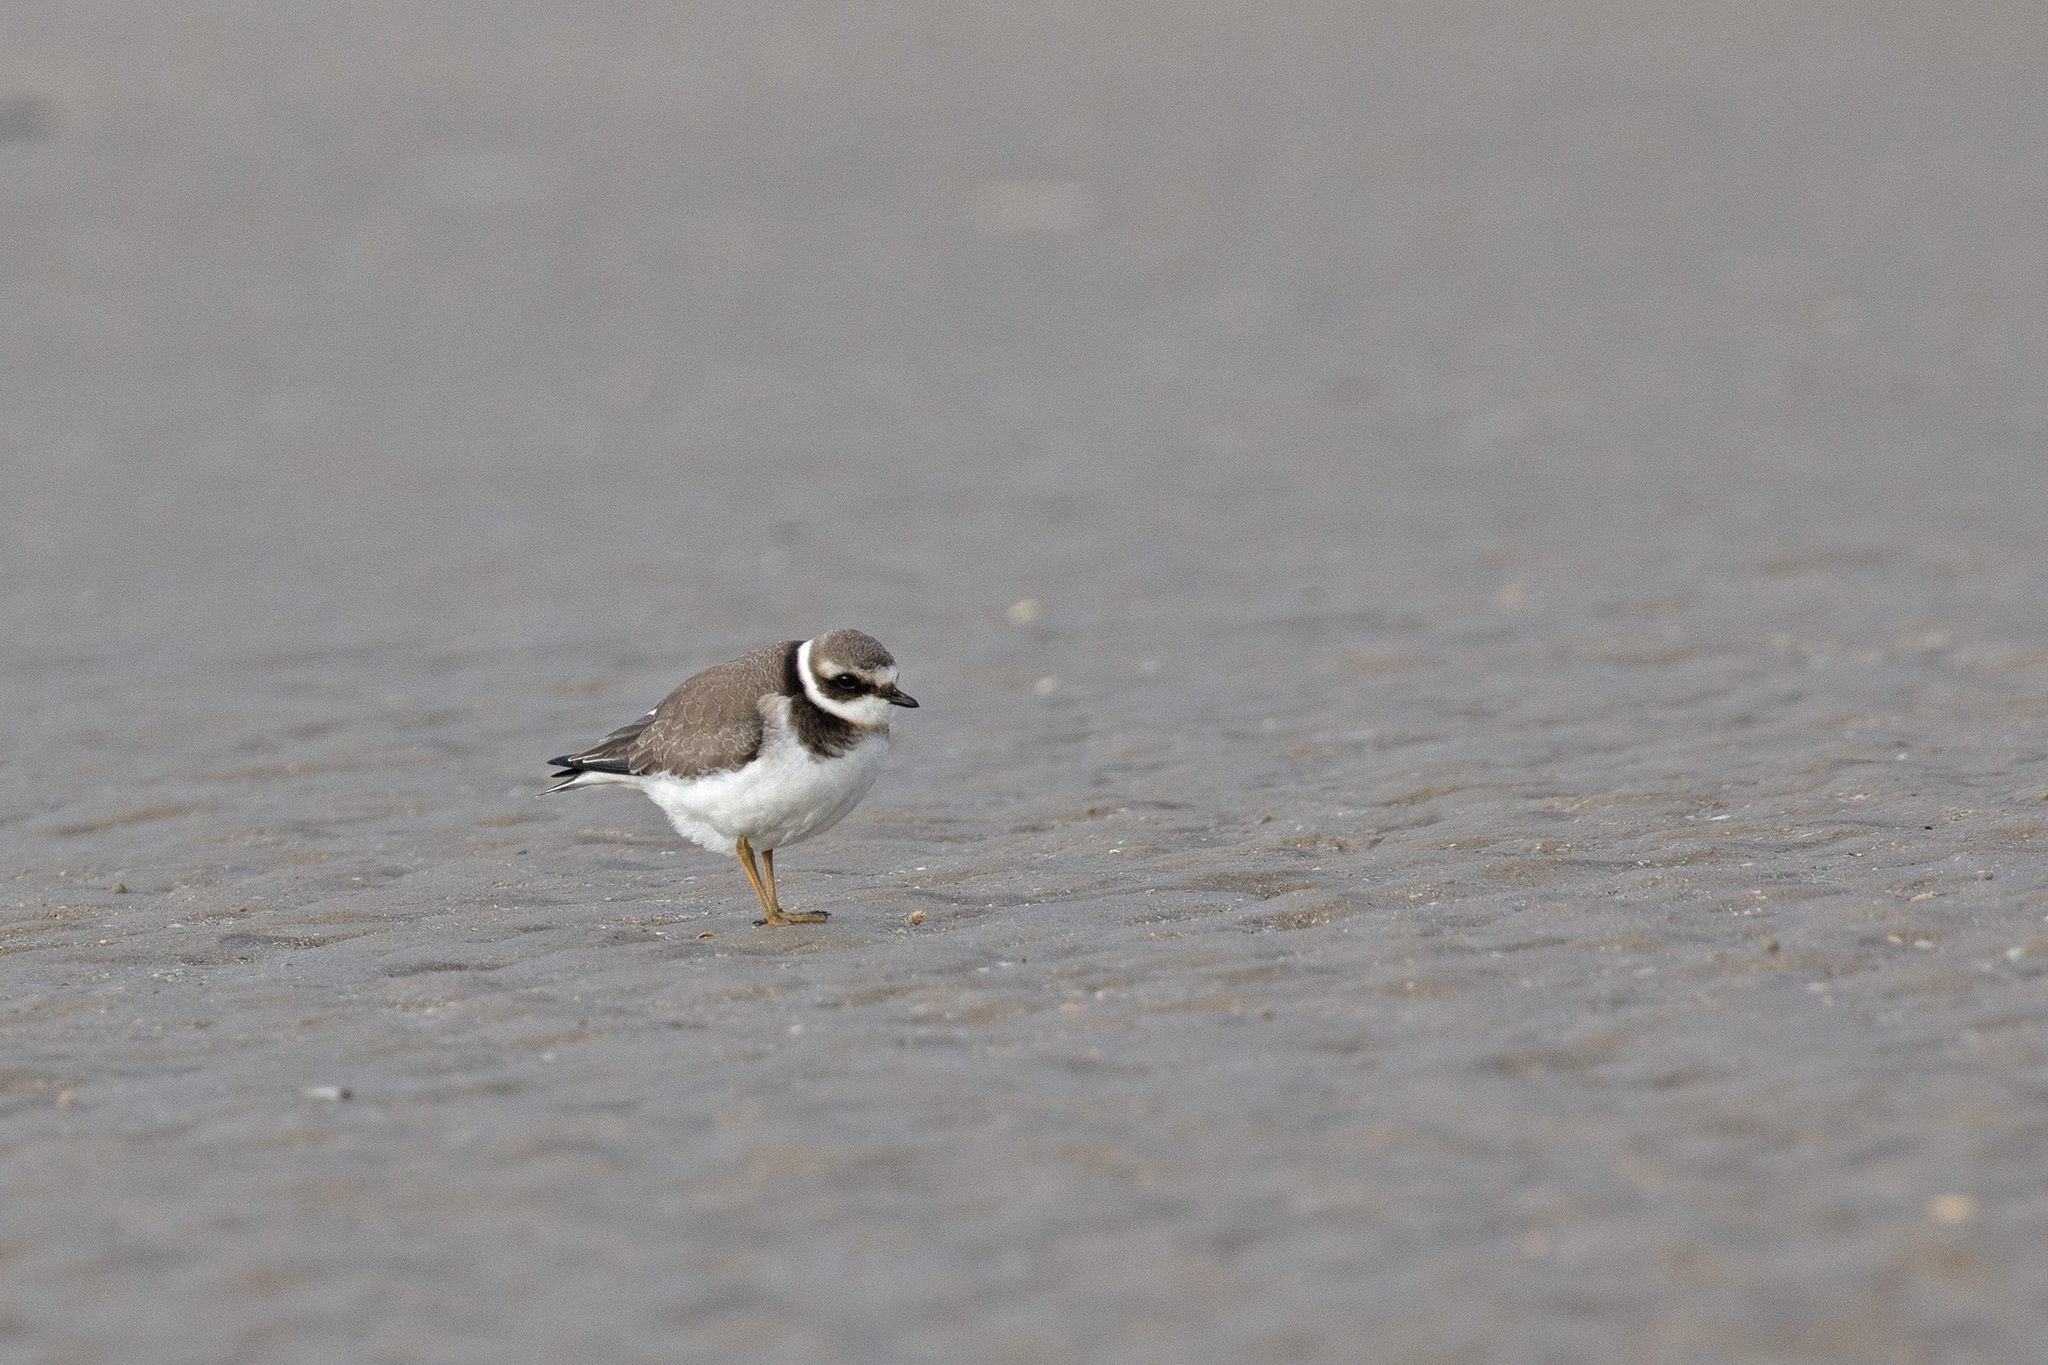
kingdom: Animalia
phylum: Chordata
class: Aves
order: Charadriiformes
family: Charadriidae
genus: Charadrius
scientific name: Charadrius hiaticula
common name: Common ringed plover
